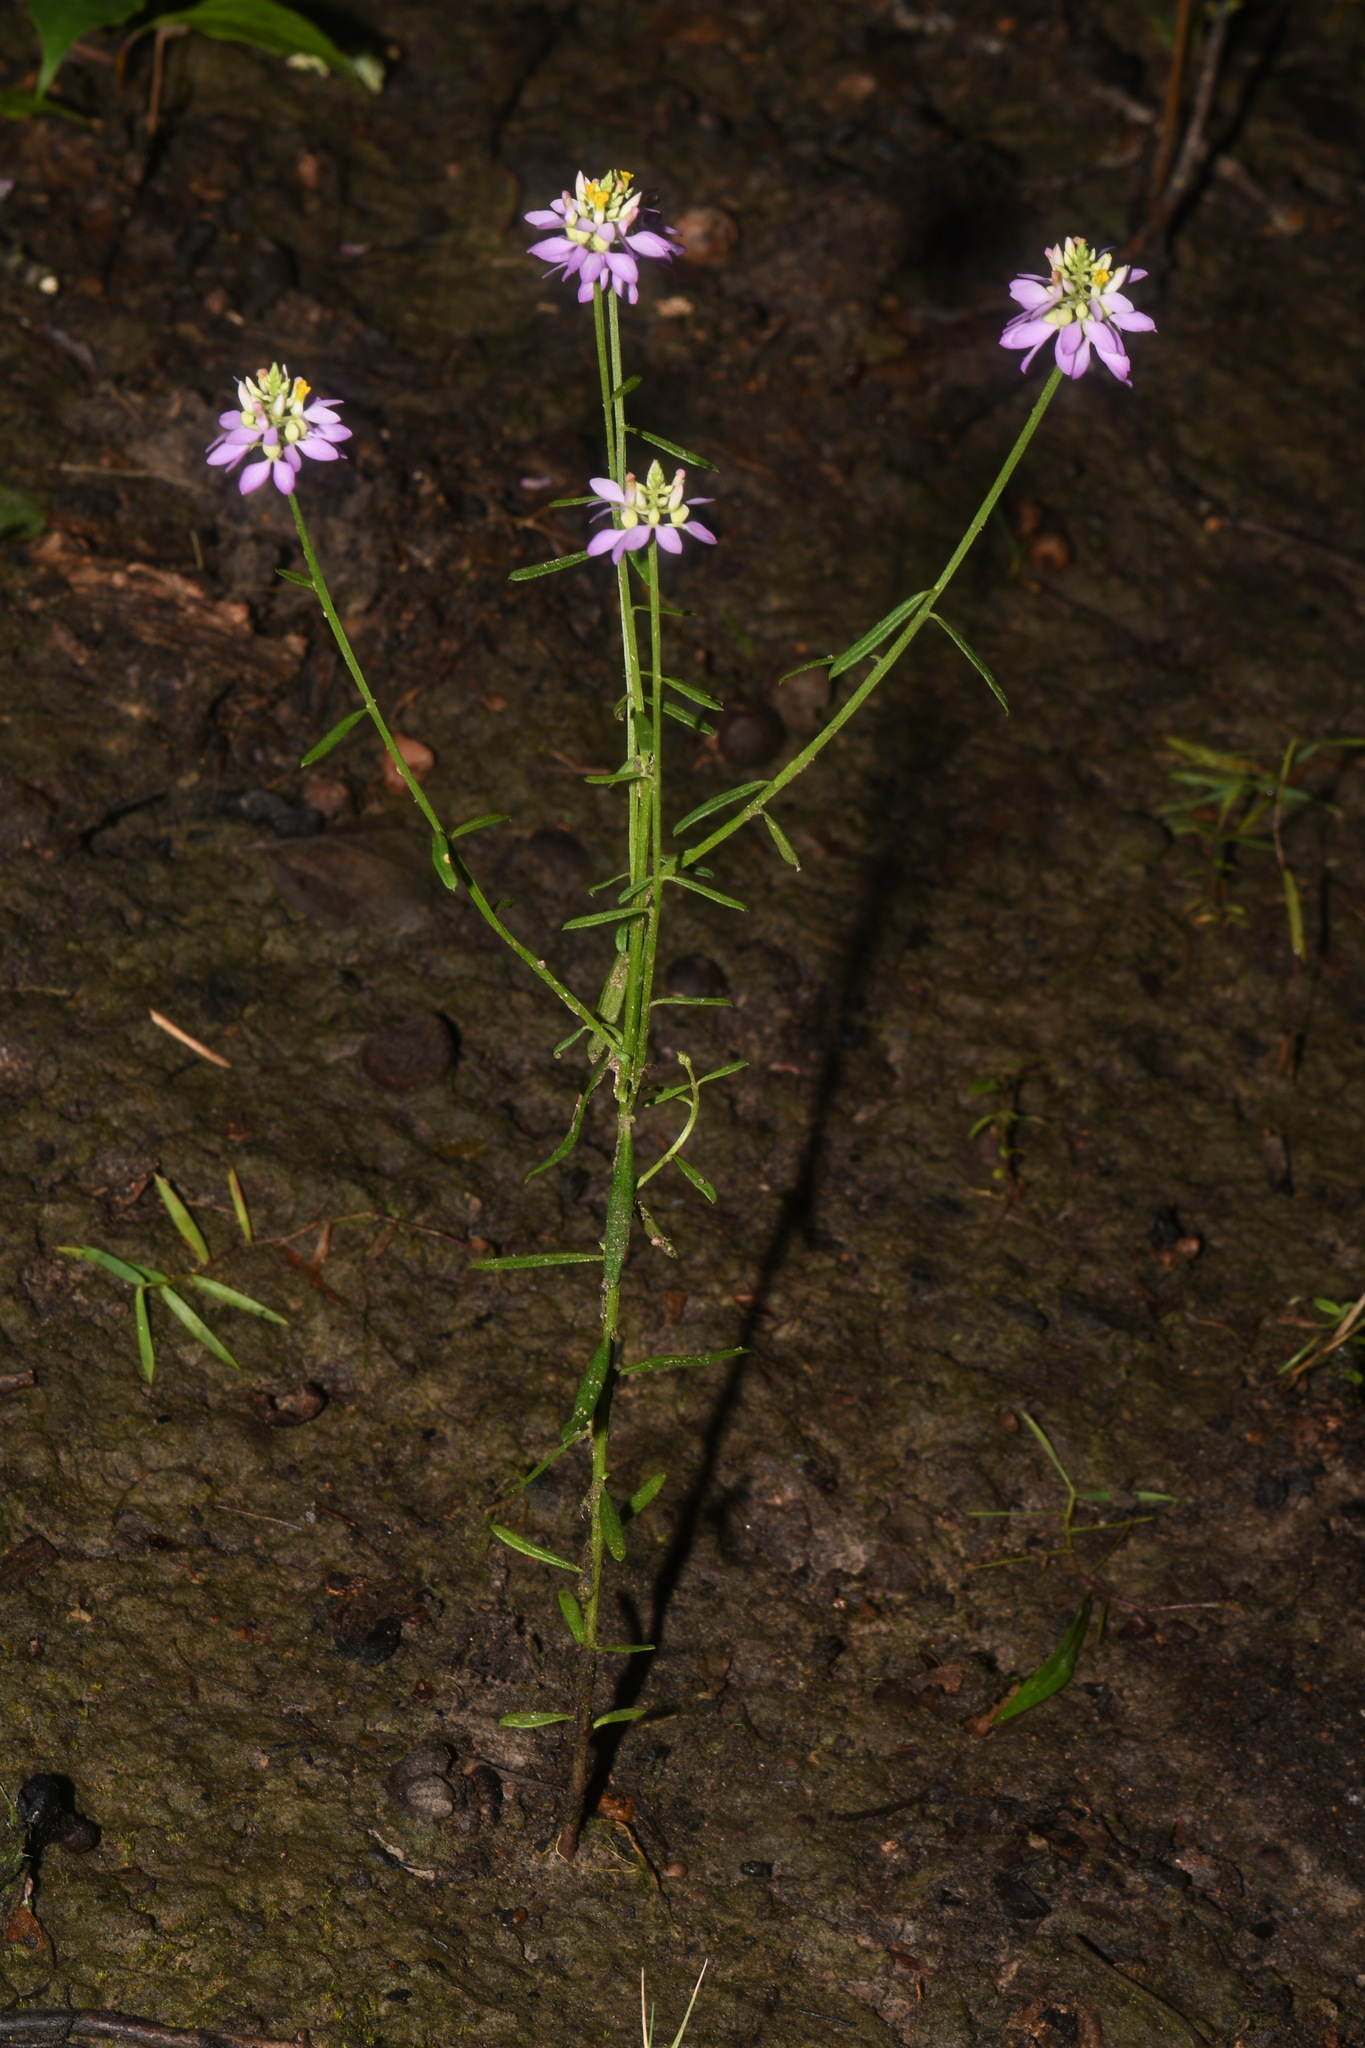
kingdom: Plantae
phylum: Tracheophyta
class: Magnoliopsida
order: Fabales
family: Polygalaceae
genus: Polygala
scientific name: Polygala curtissii
